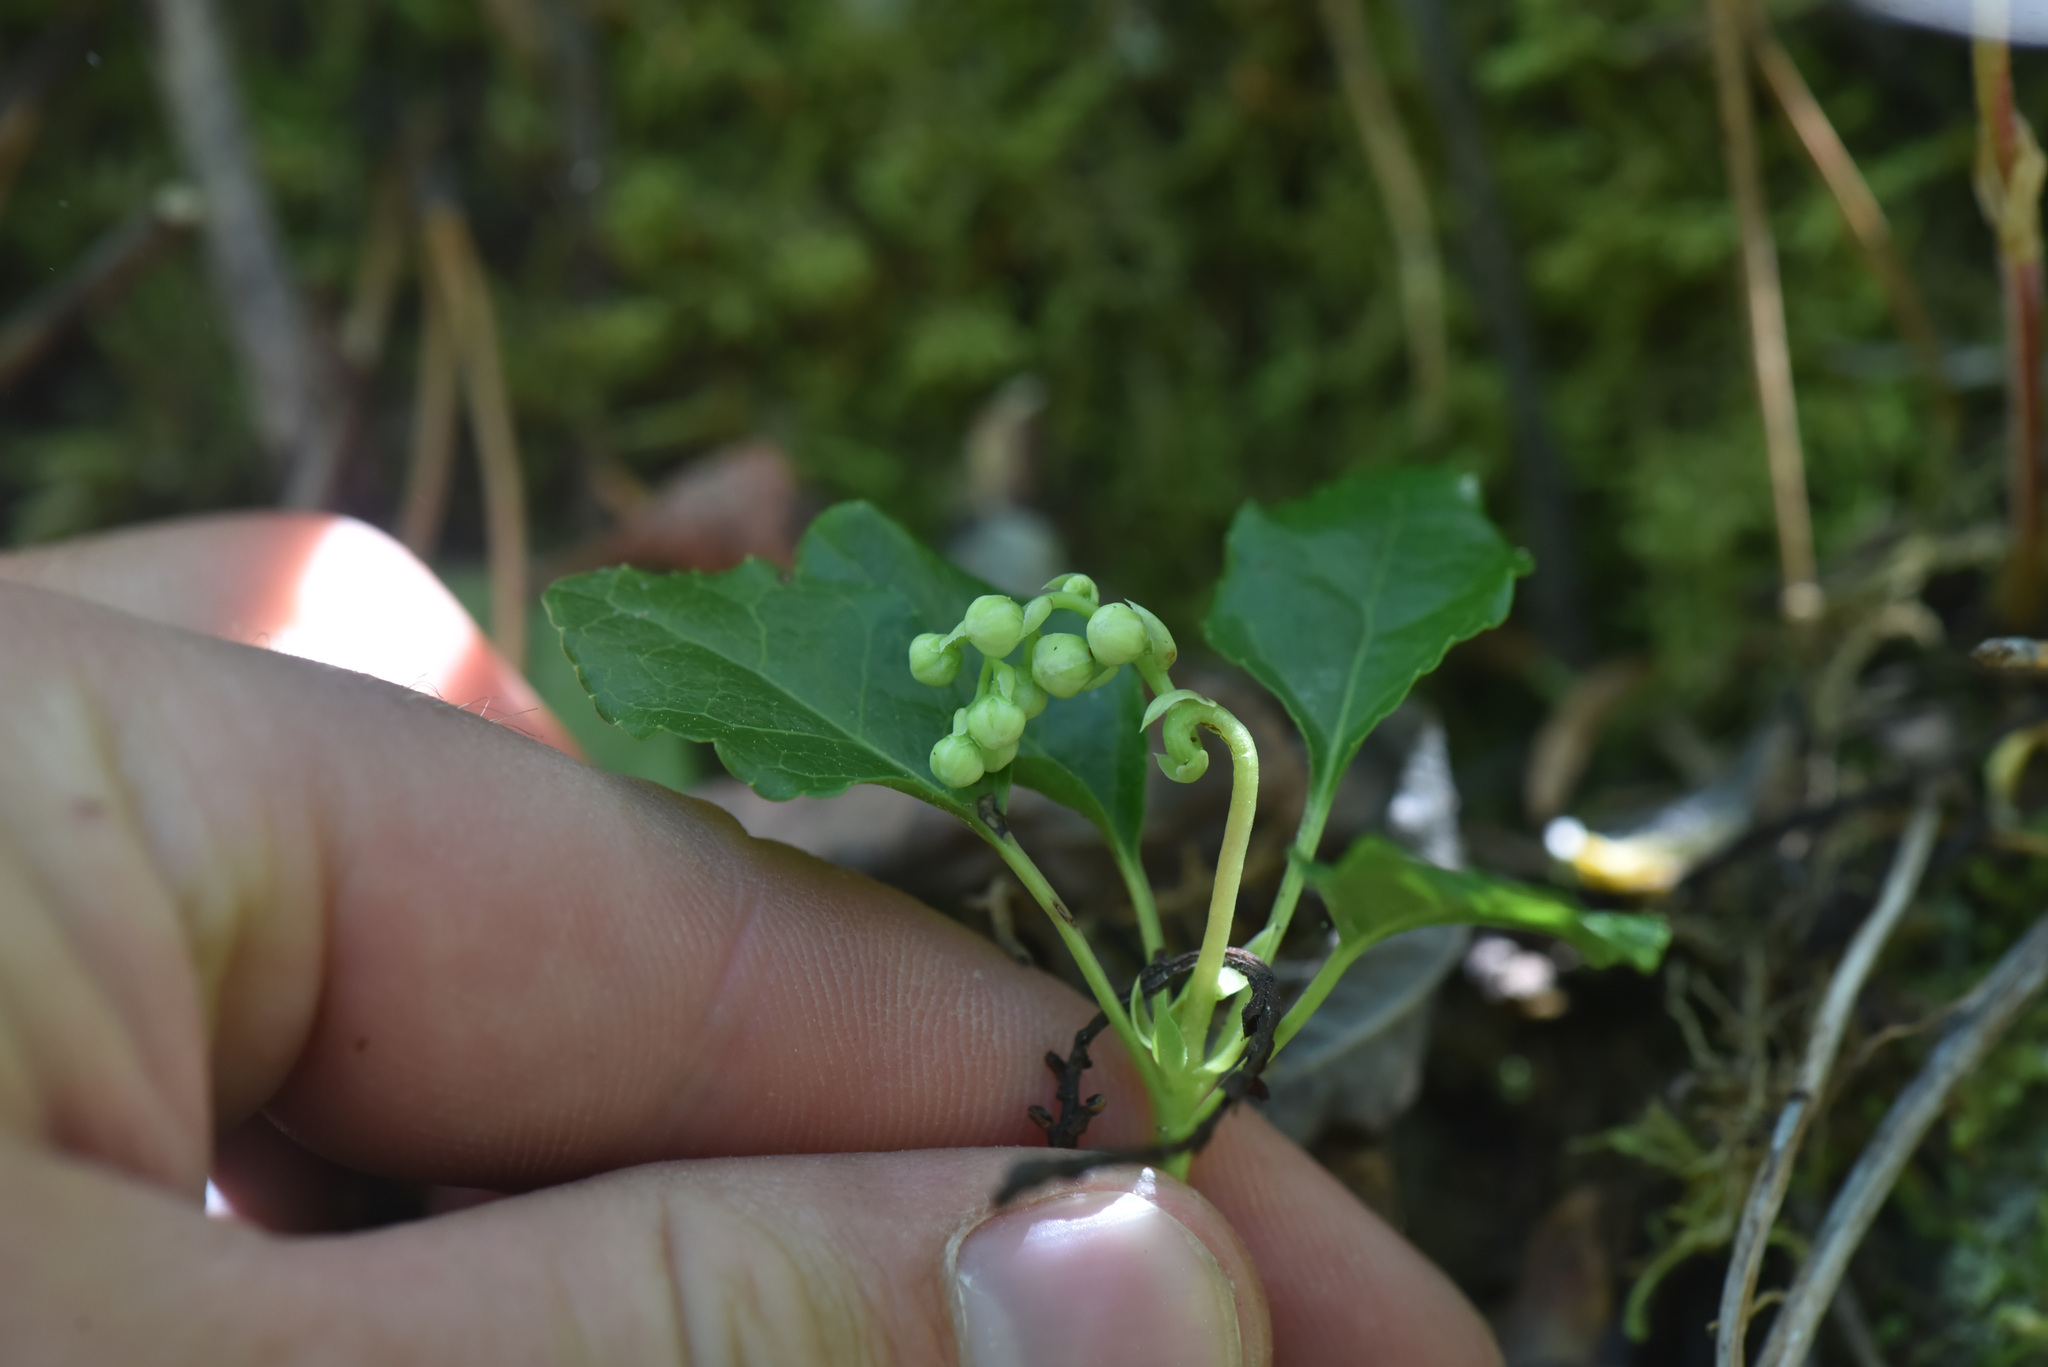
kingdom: Plantae
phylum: Tracheophyta
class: Magnoliopsida
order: Ericales
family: Ericaceae
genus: Orthilia
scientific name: Orthilia secunda
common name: One-sided orthilia
